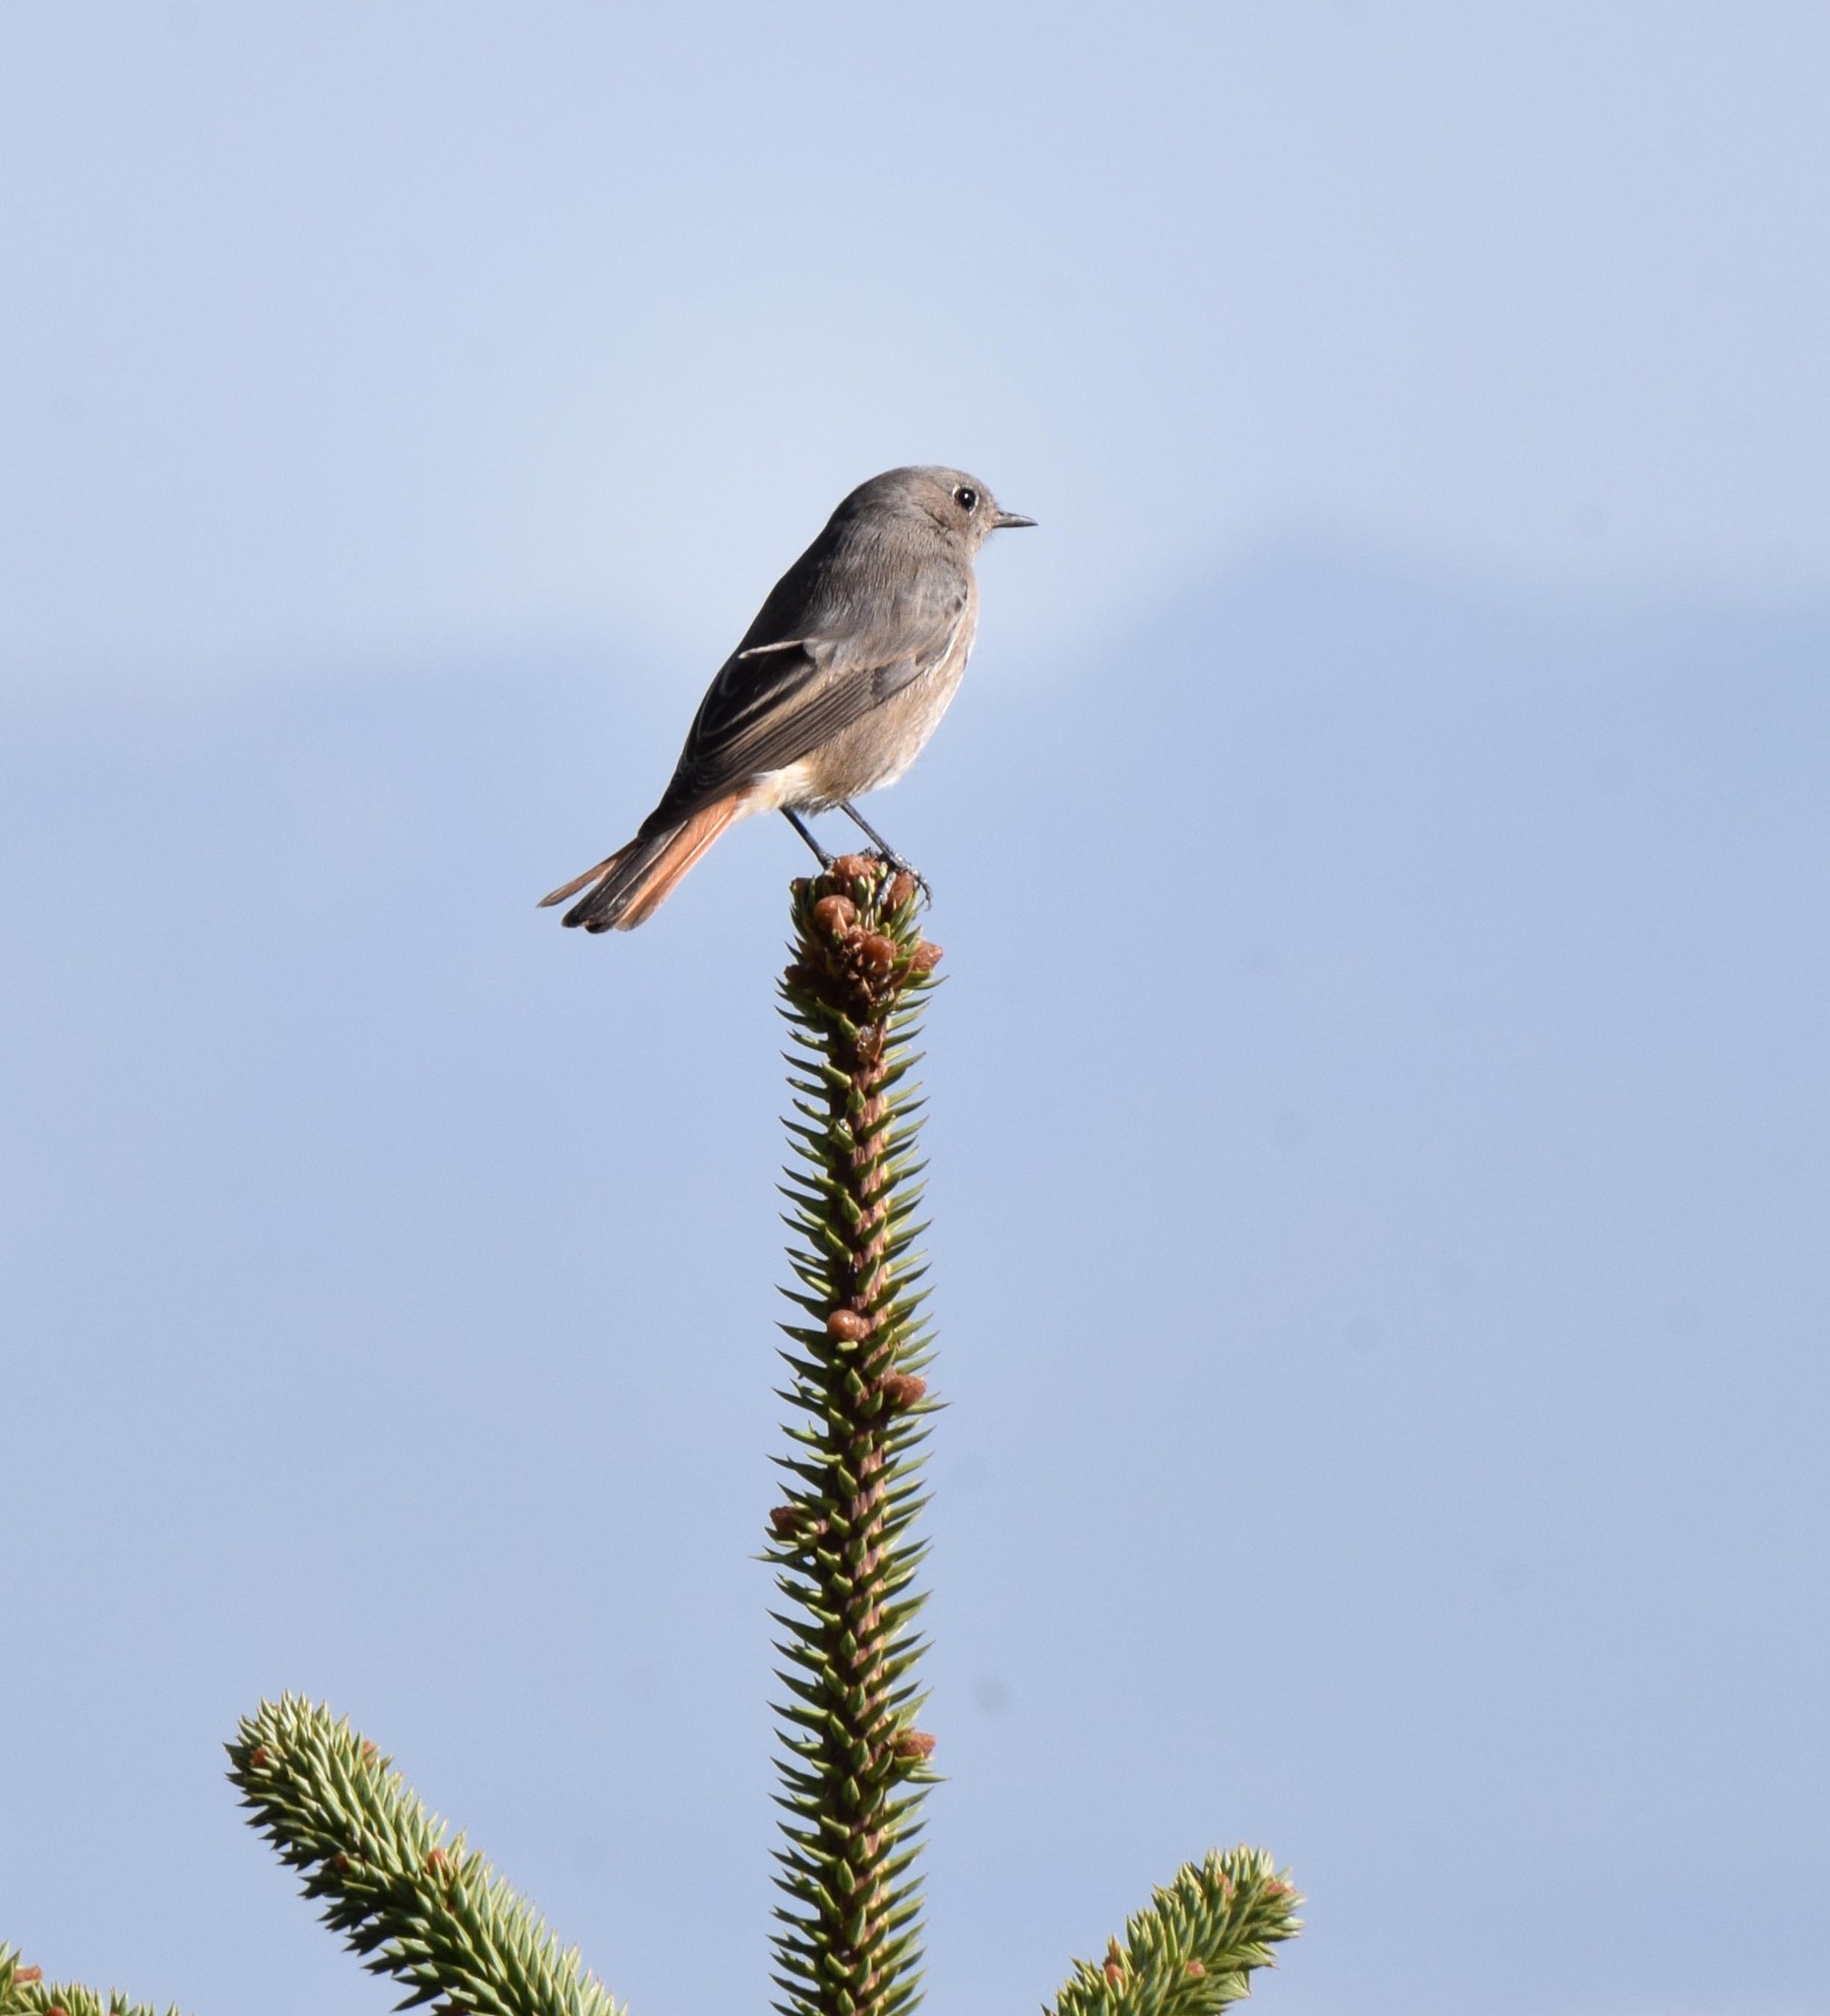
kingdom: Animalia
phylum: Chordata
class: Aves
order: Passeriformes
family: Muscicapidae
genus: Phoenicurus
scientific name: Phoenicurus ochruros
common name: Black redstart
